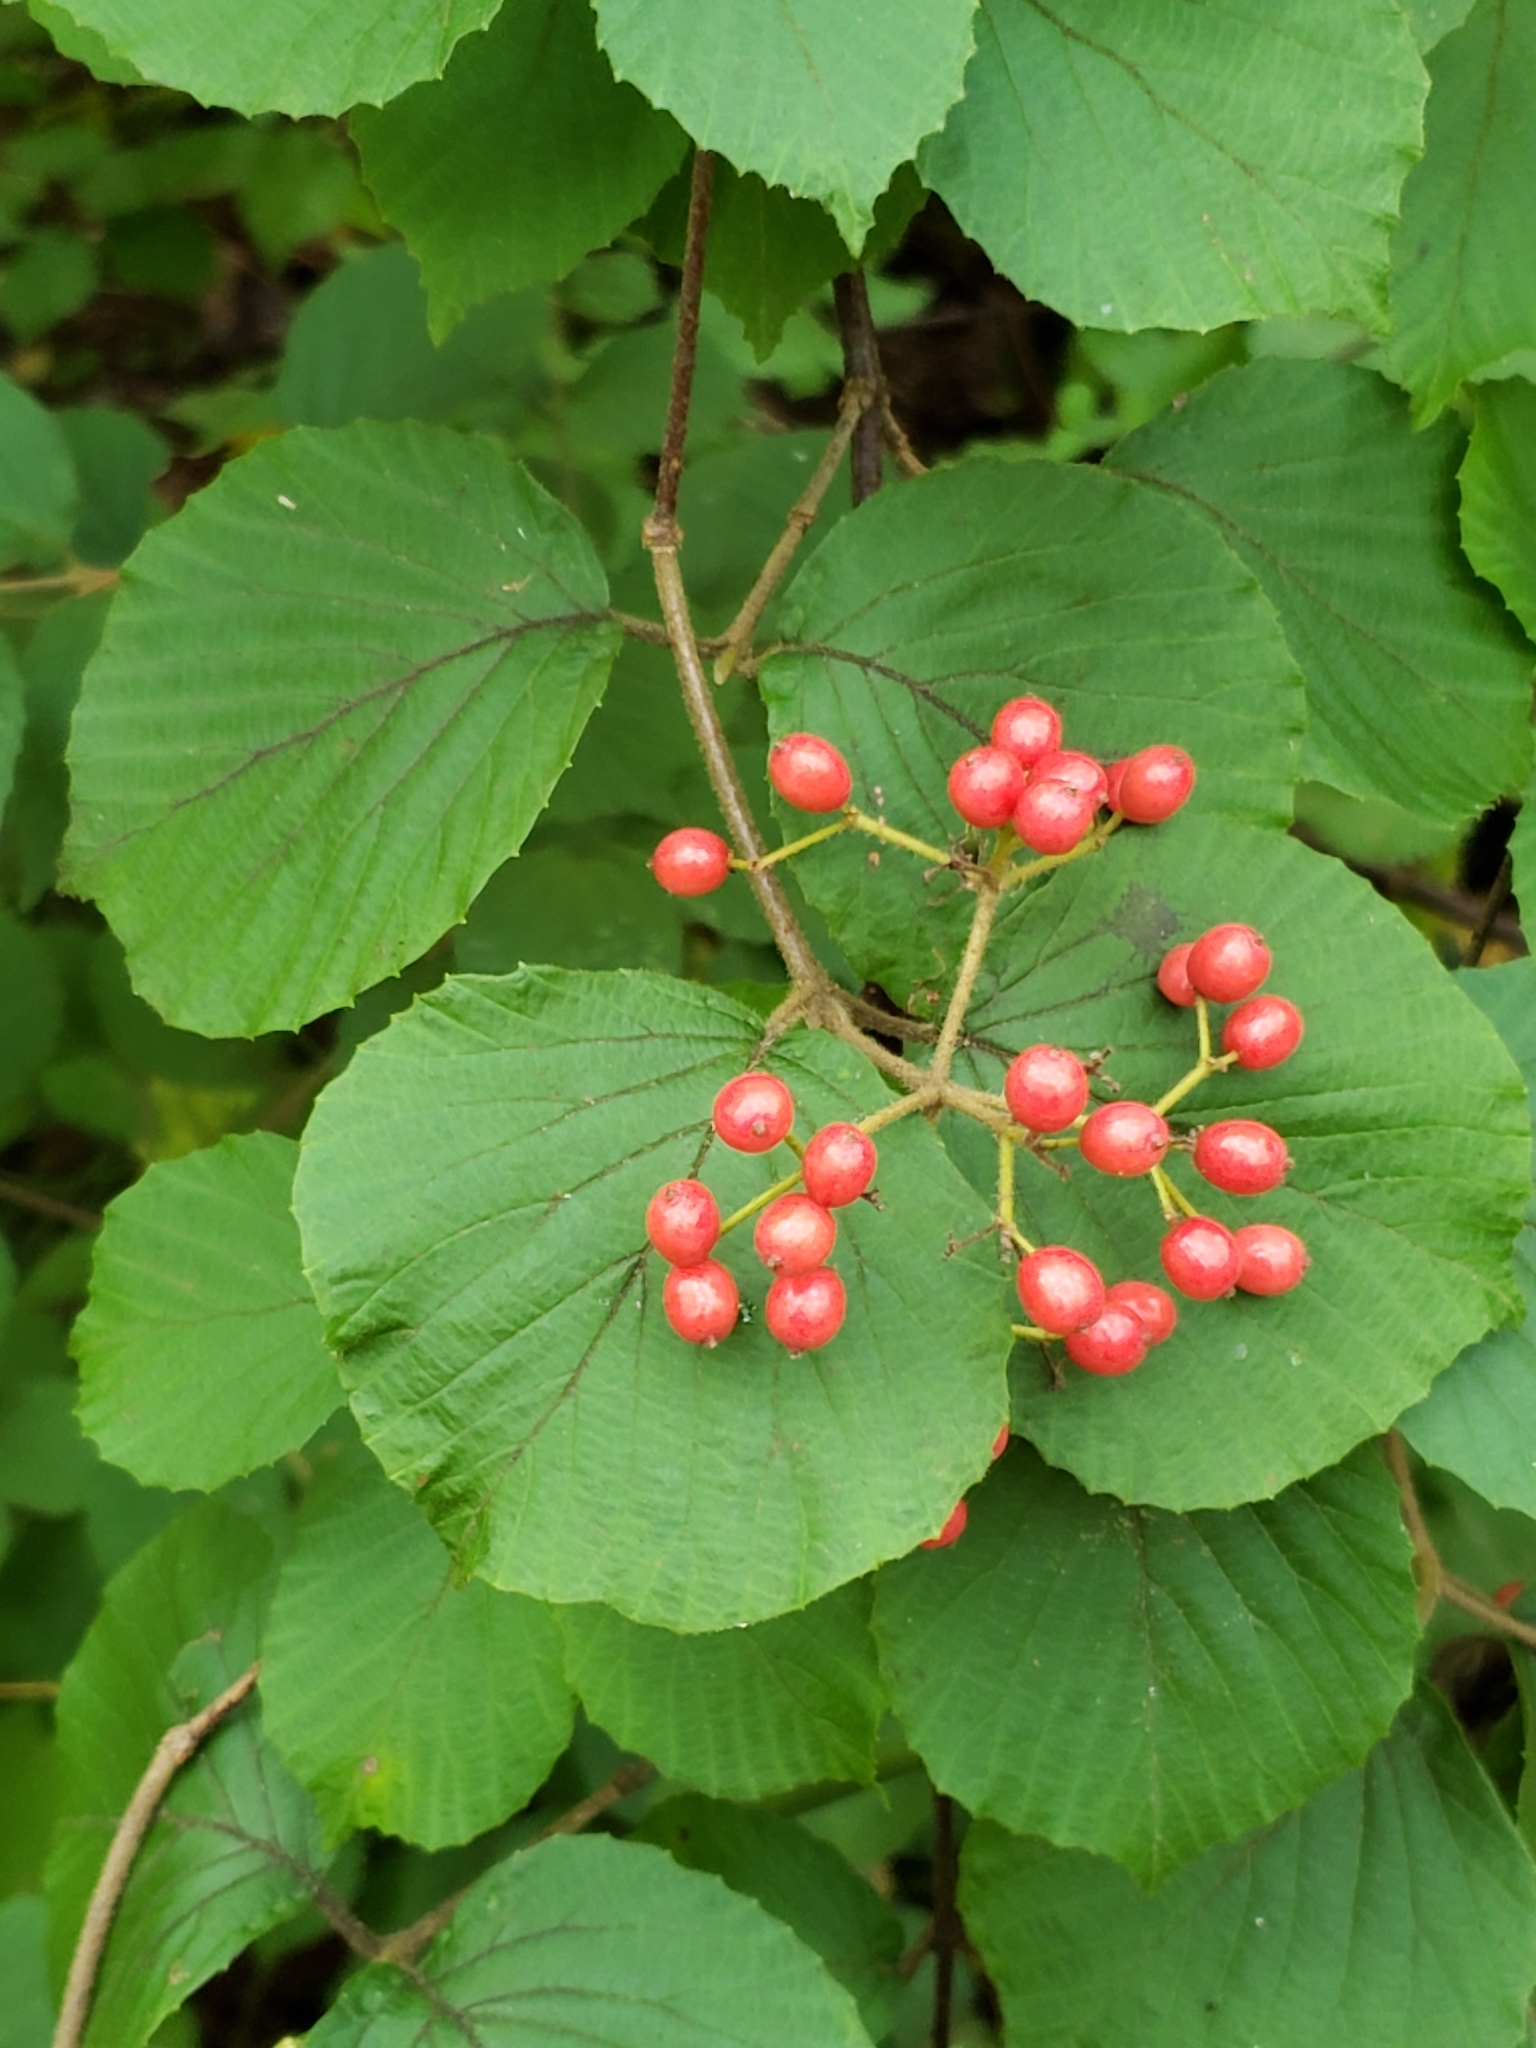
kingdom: Plantae
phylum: Tracheophyta
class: Magnoliopsida
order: Dipsacales
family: Viburnaceae
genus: Viburnum
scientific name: Viburnum dilatatum
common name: Linden arrowwood
